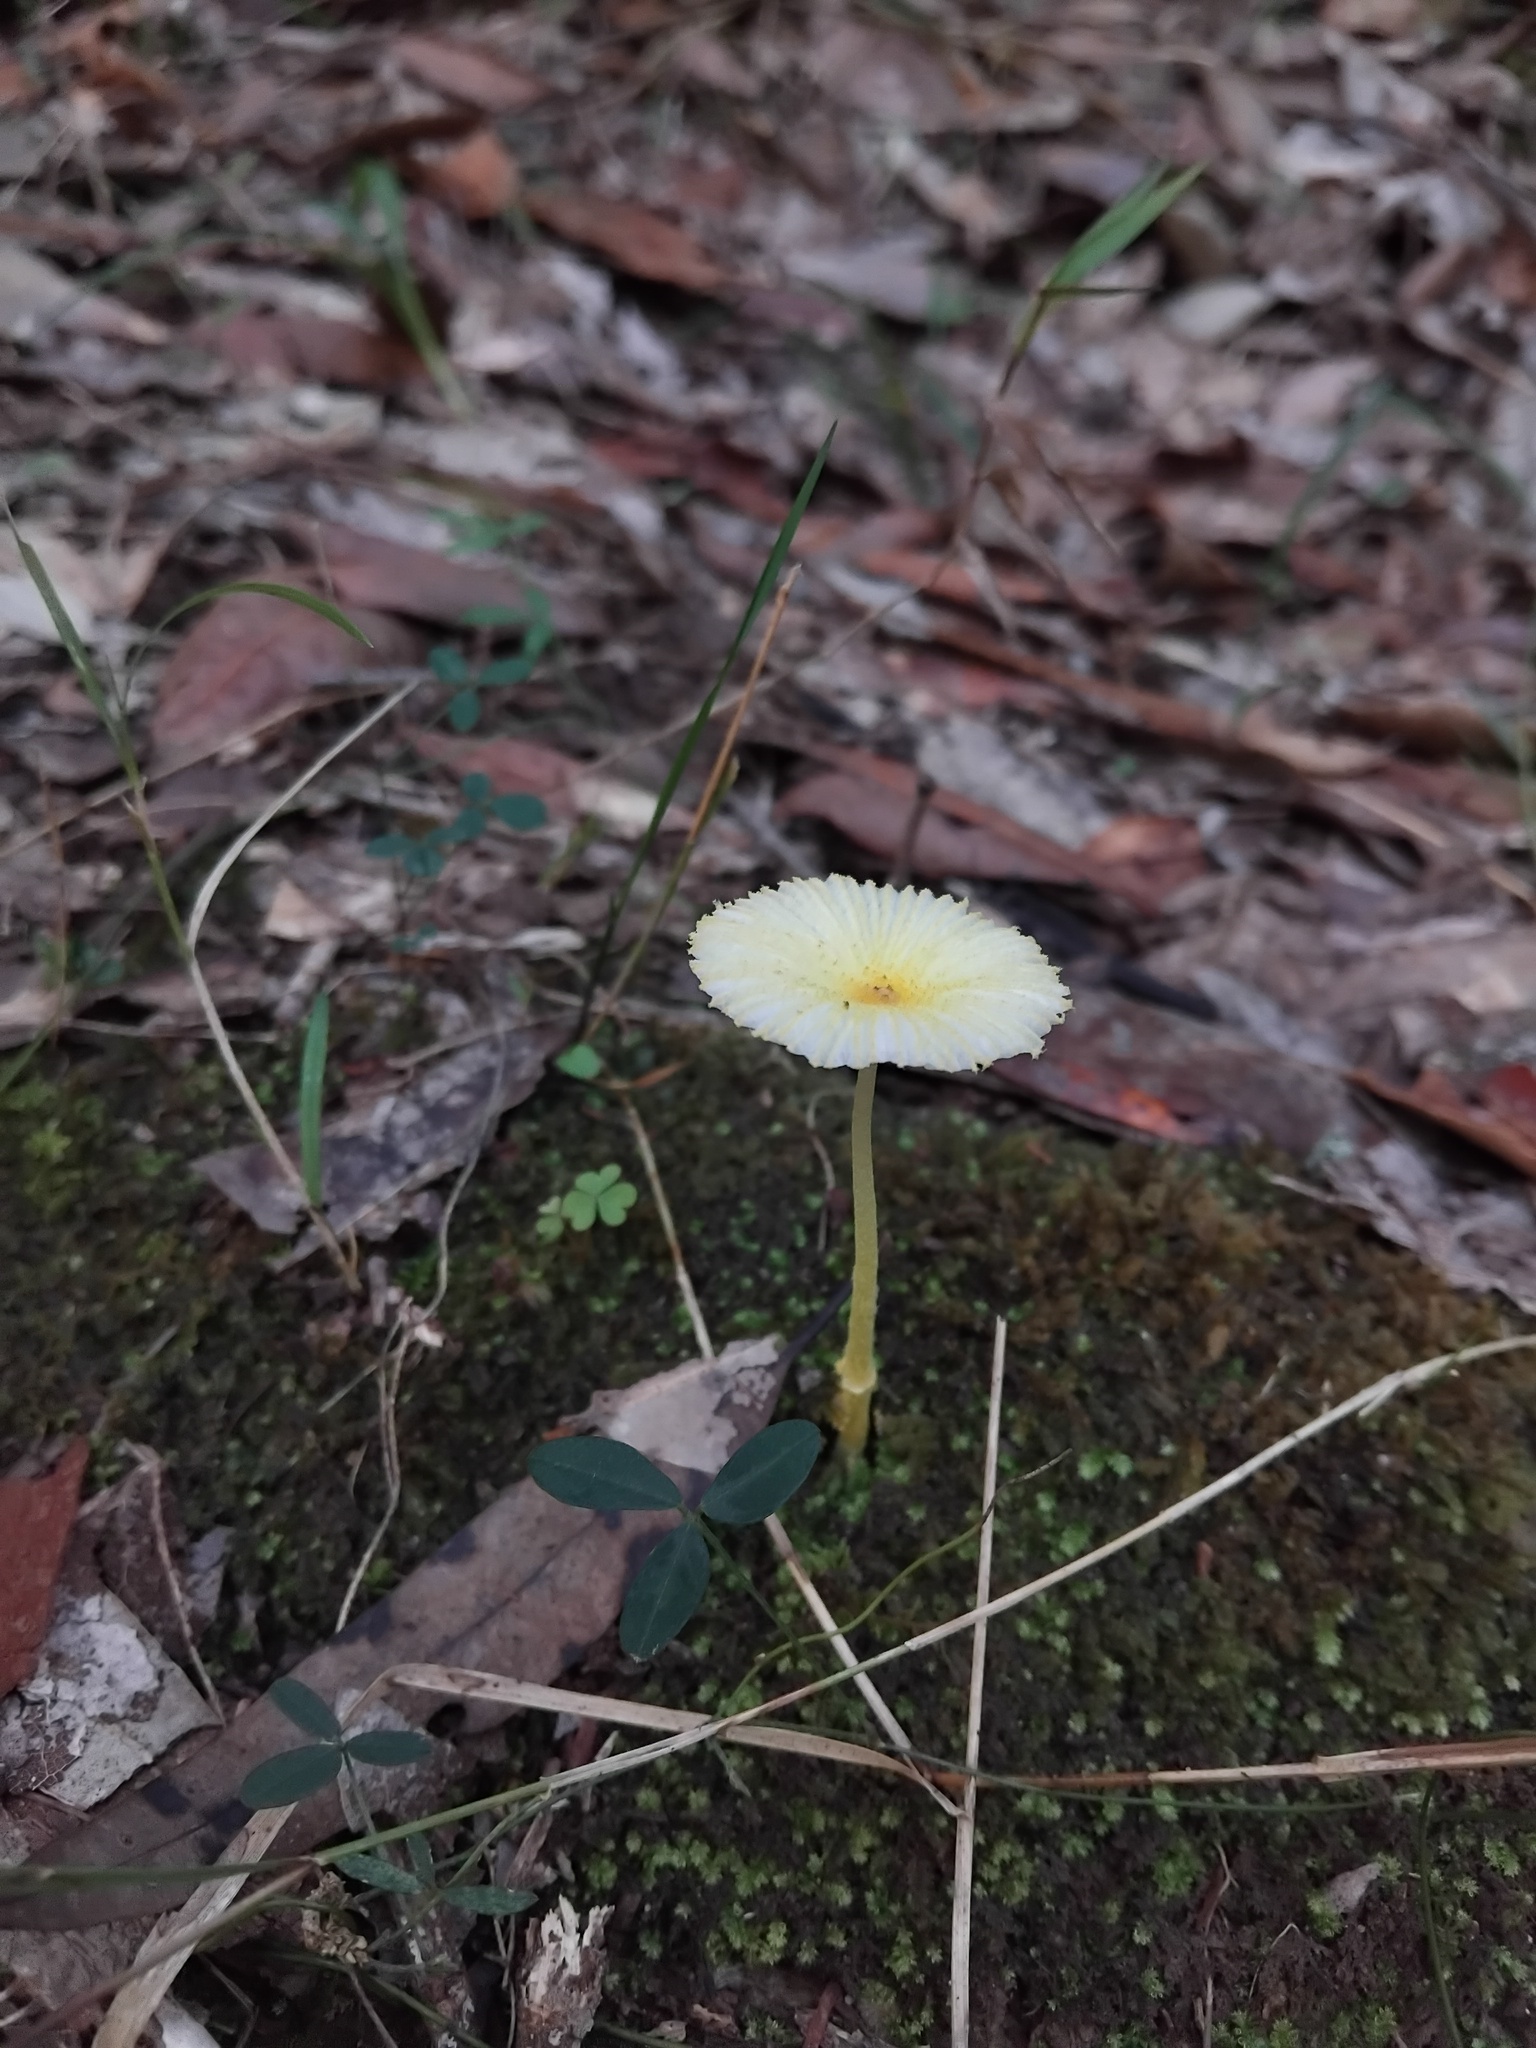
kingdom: Fungi
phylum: Basidiomycota
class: Agaricomycetes
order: Agaricales
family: Agaricaceae
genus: Leucocoprinus
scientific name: Leucocoprinus fragilissimus
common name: Fragile dapperling
